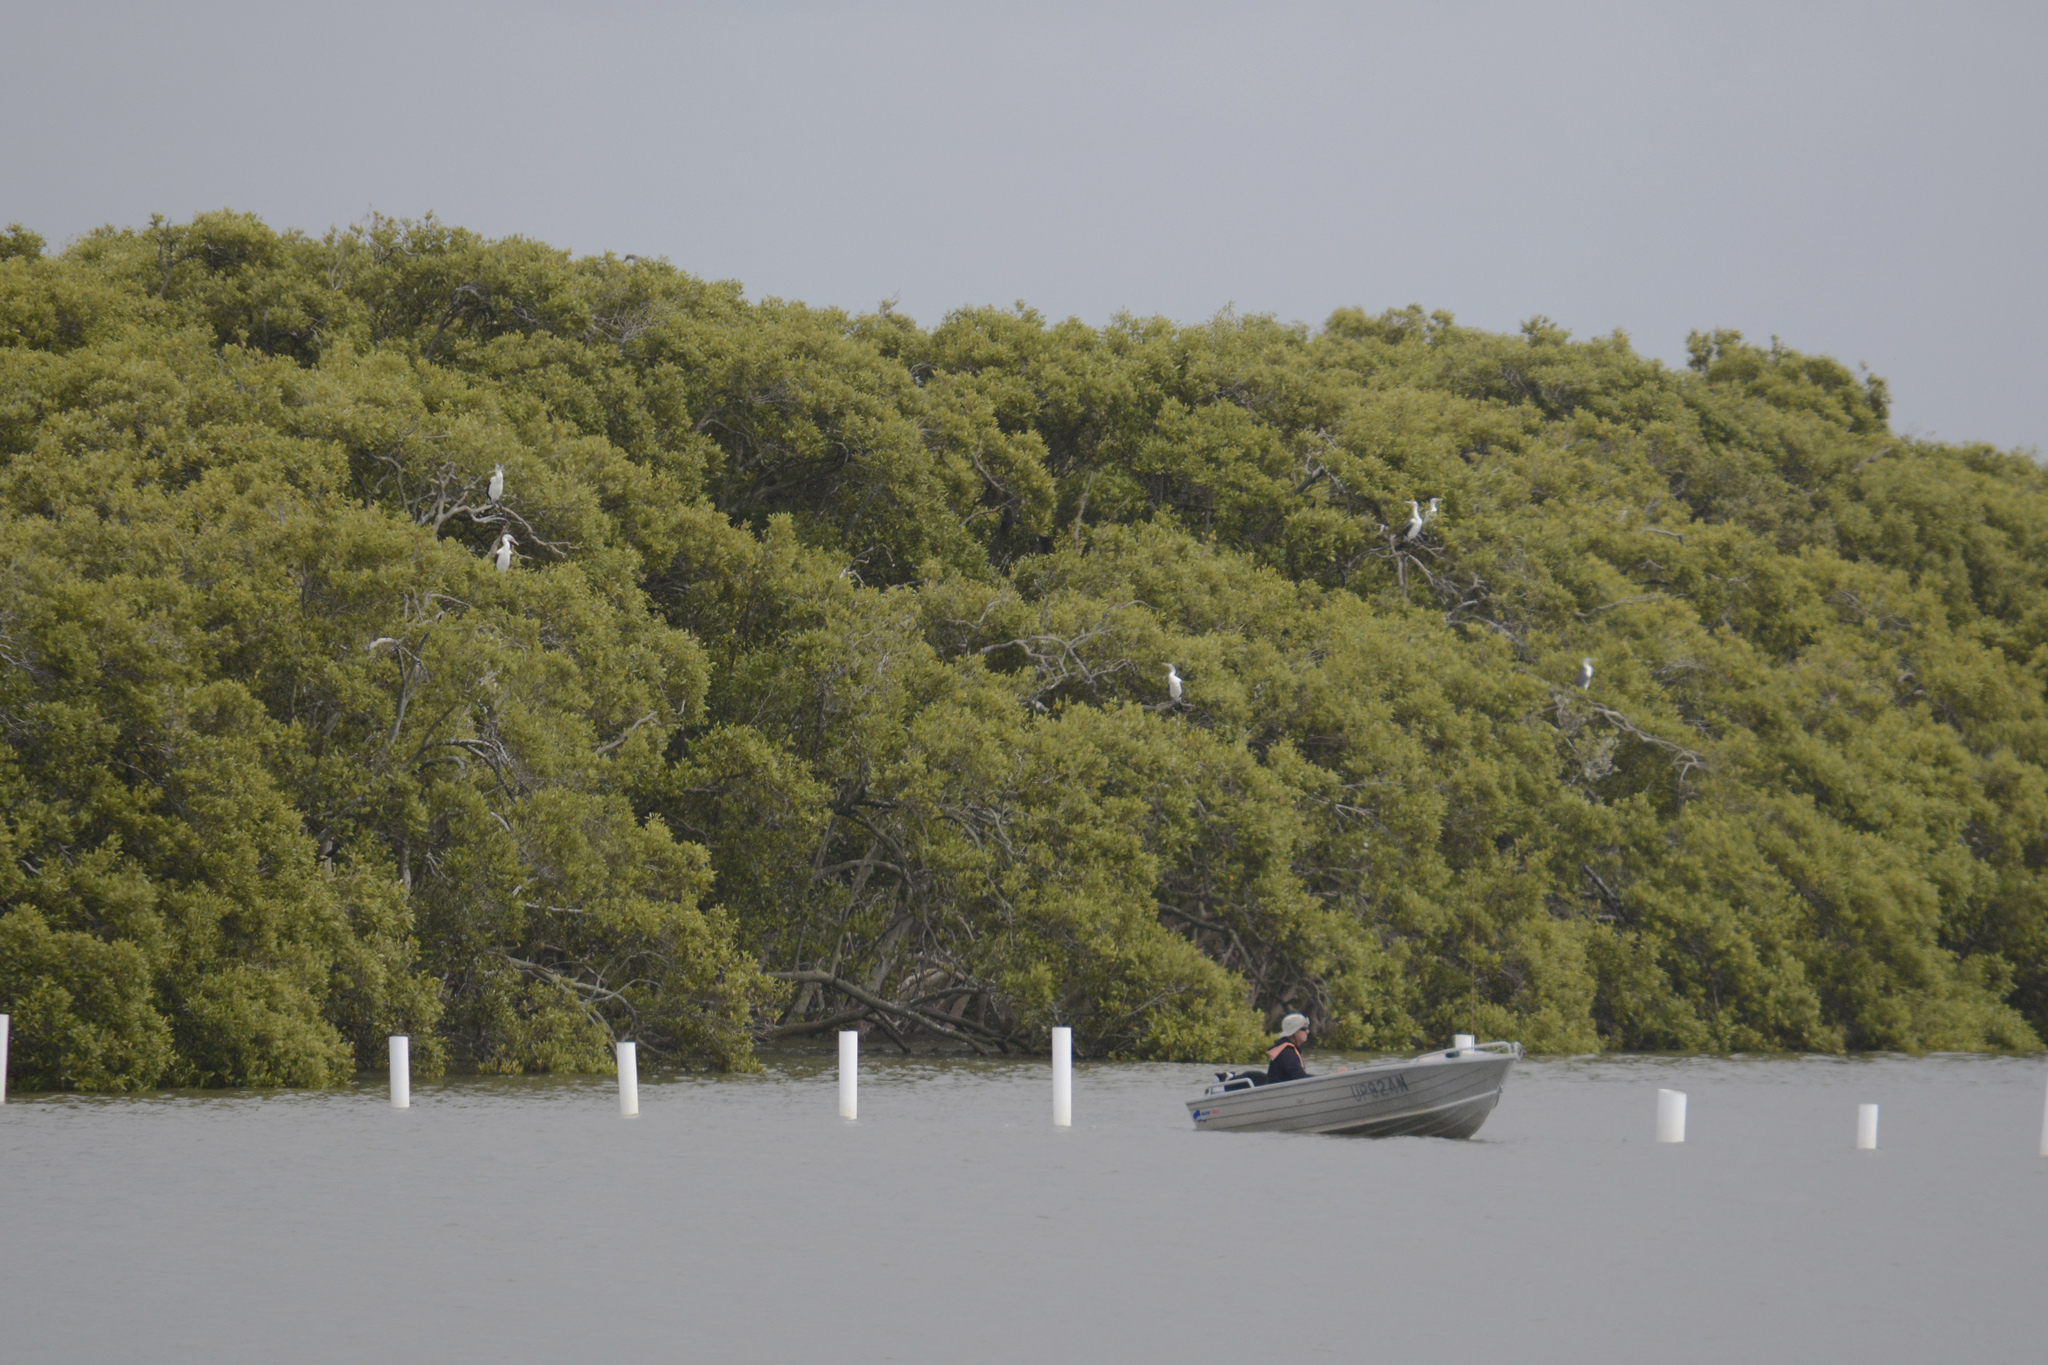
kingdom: Animalia
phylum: Chordata
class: Aves
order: Suliformes
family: Phalacrocoracidae
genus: Phalacrocorax
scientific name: Phalacrocorax varius
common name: Pied cormorant
